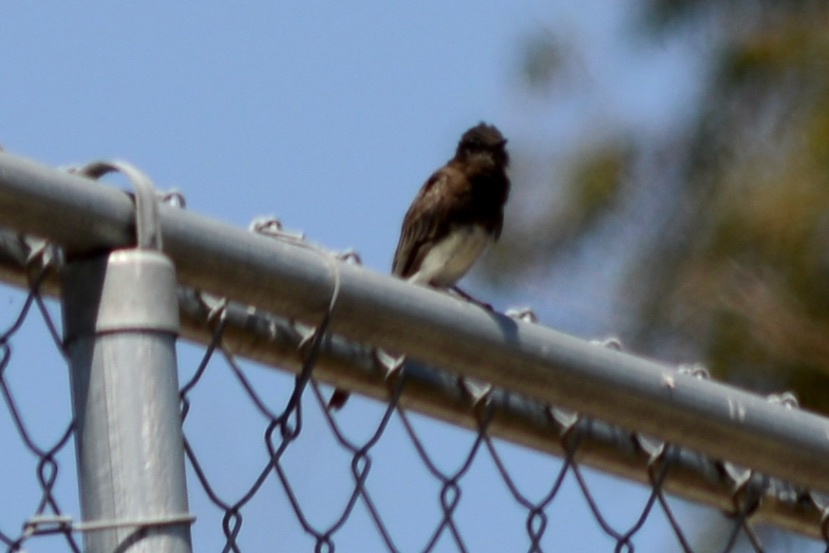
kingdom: Animalia
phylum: Chordata
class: Aves
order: Passeriformes
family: Tyrannidae
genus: Sayornis
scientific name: Sayornis nigricans
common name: Black phoebe
